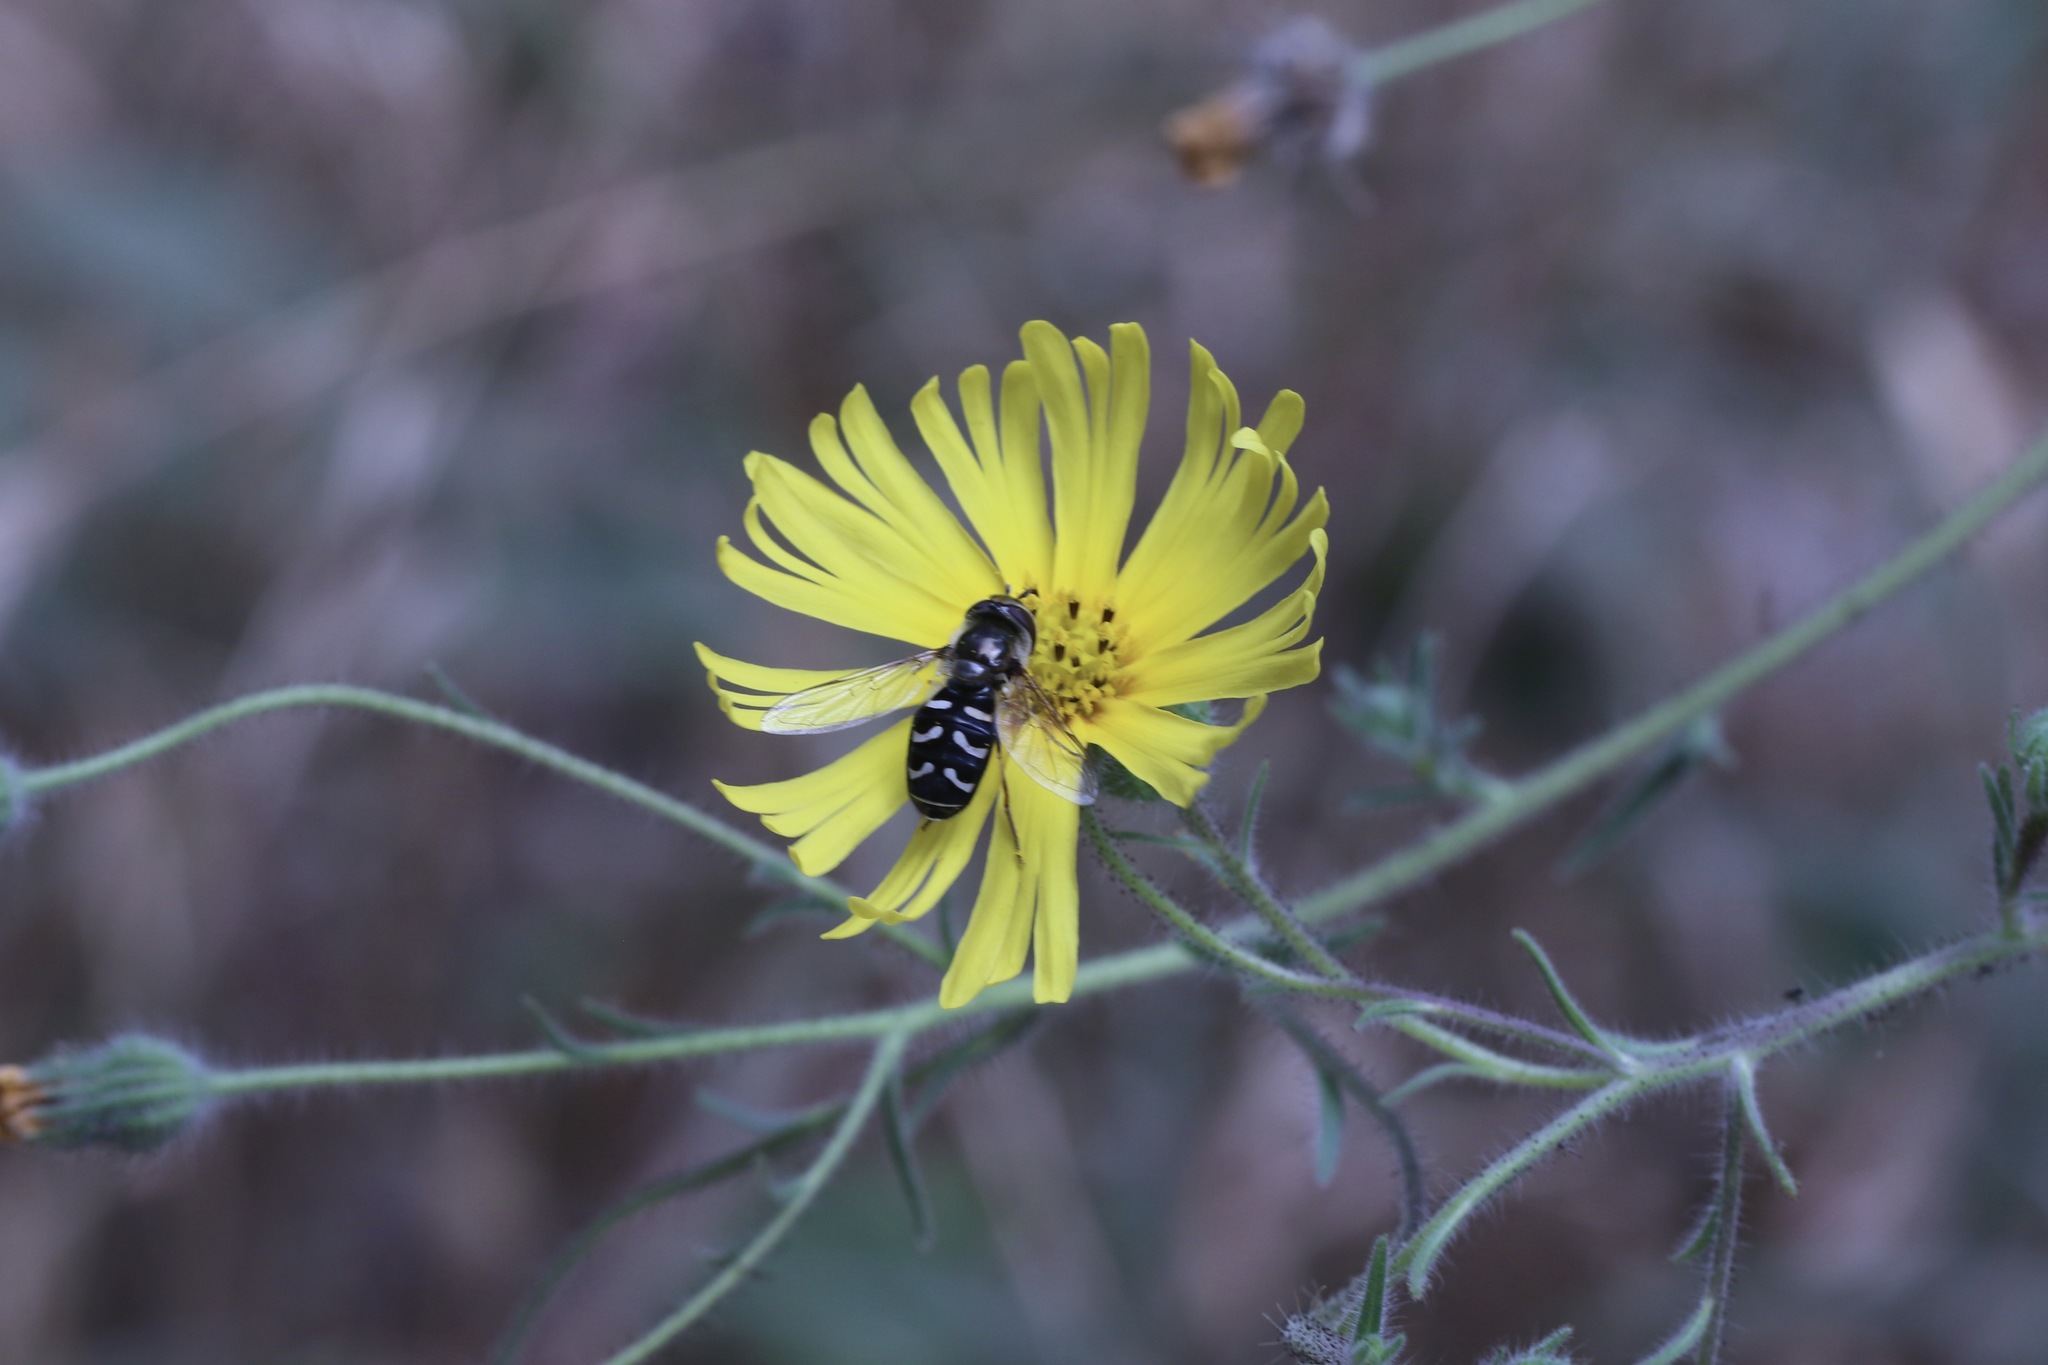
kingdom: Animalia
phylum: Arthropoda
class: Insecta
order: Diptera
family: Syrphidae
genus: Scaeva
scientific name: Scaeva affinis
